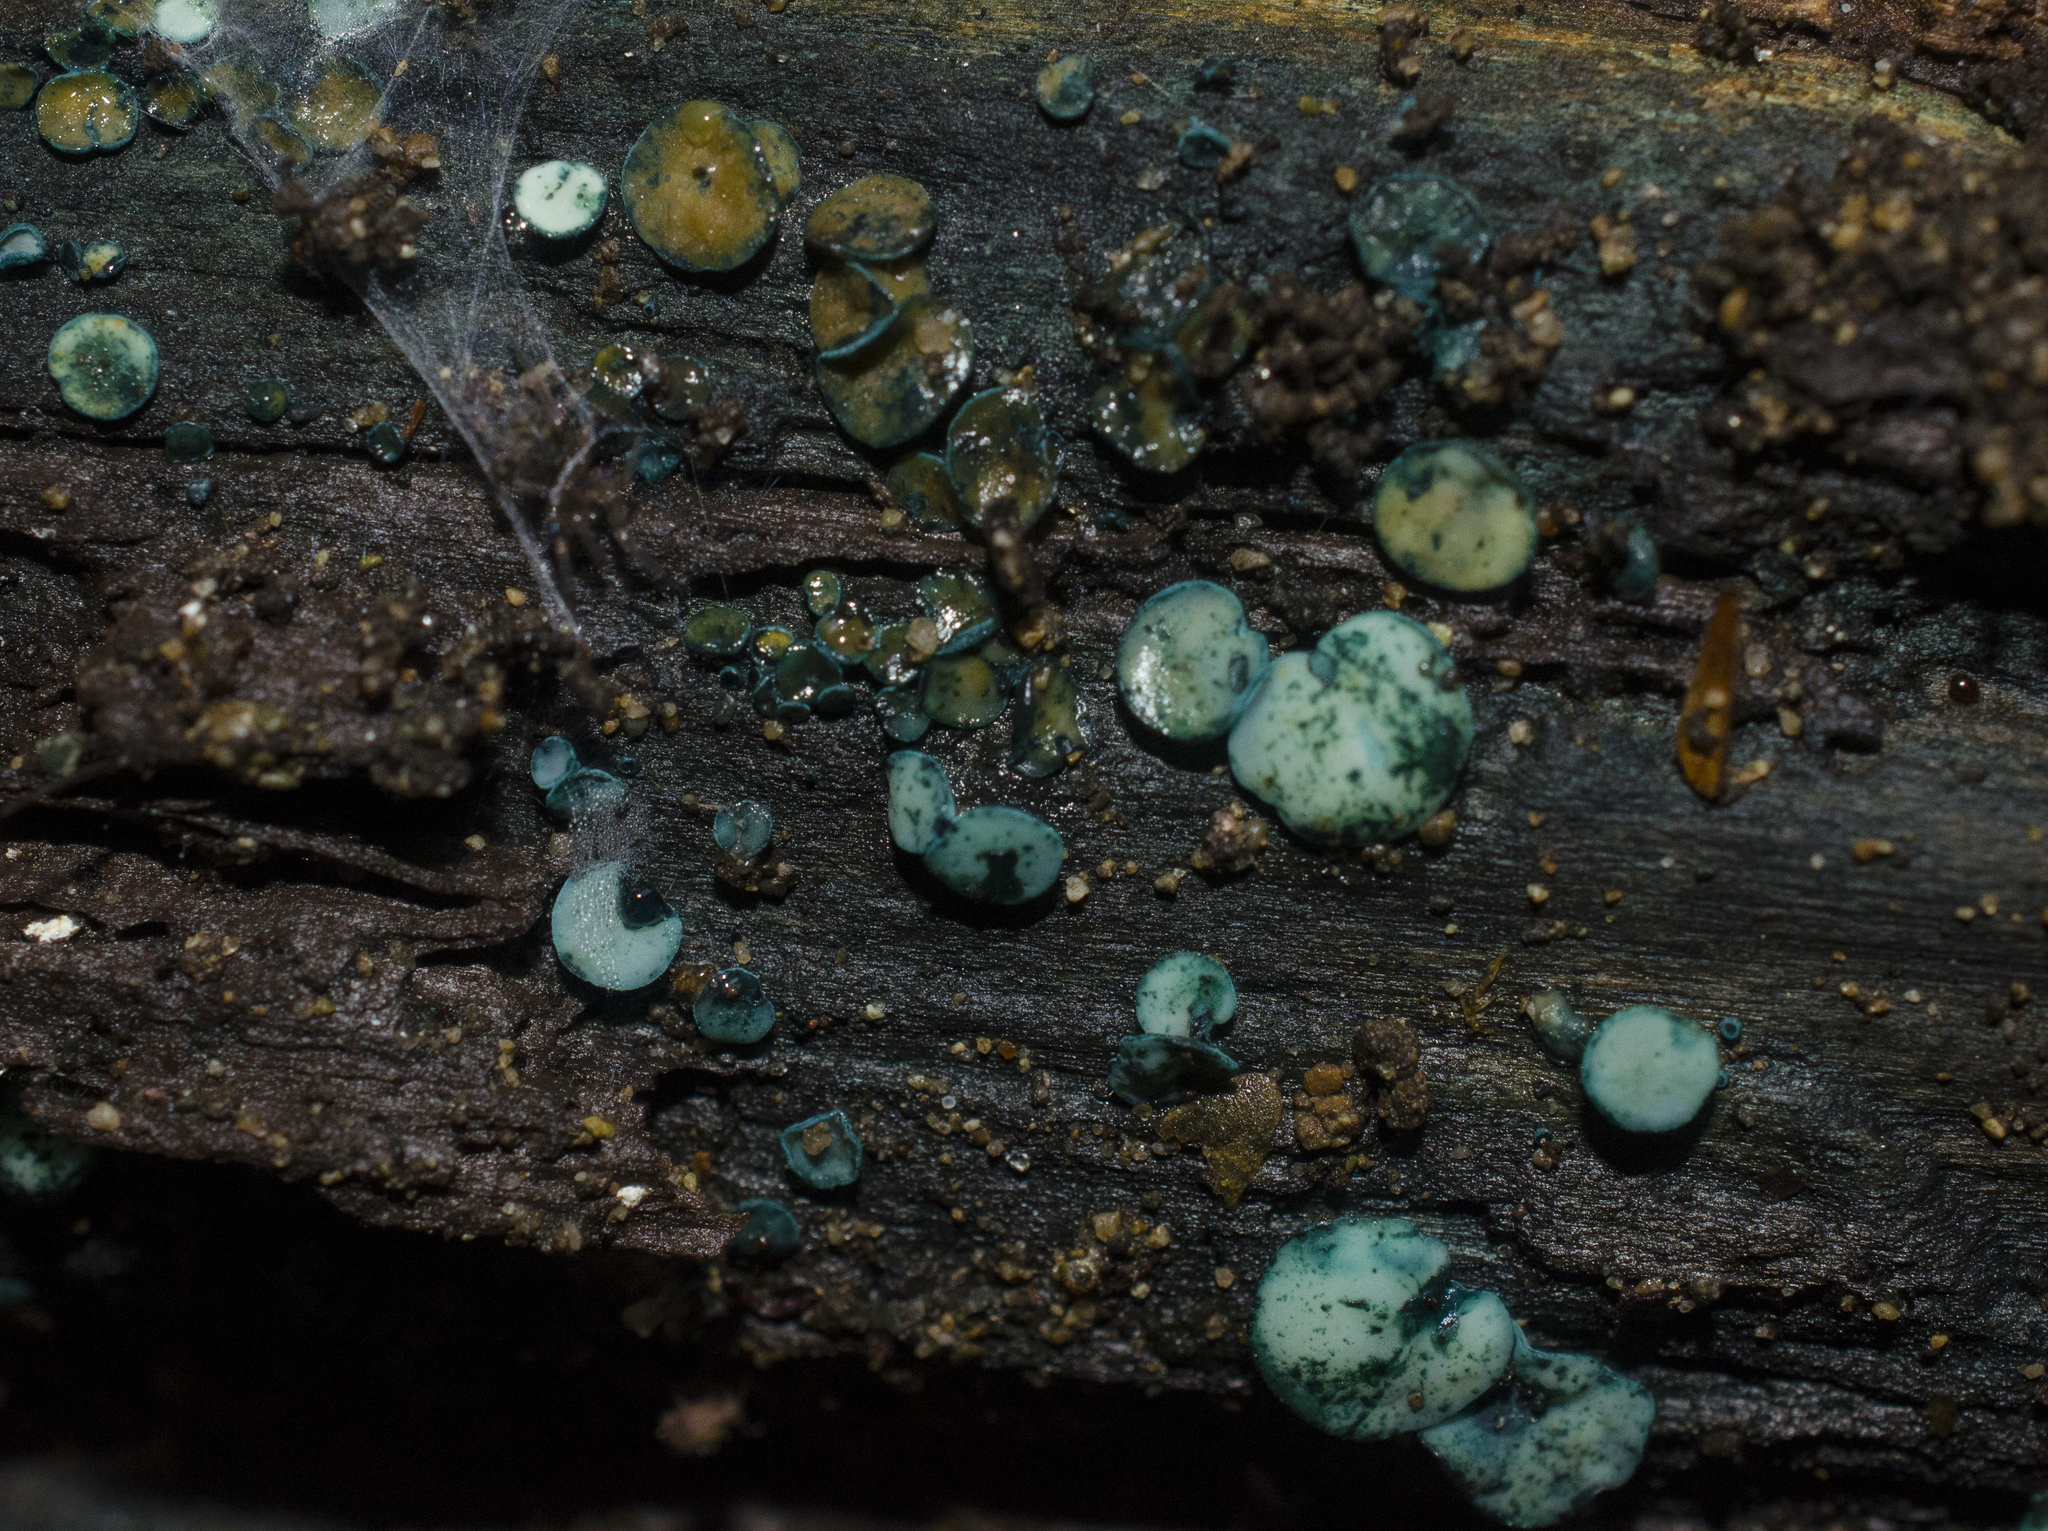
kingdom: Fungi
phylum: Ascomycota
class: Leotiomycetes
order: Helotiales
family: Chlorociboriaceae
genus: Chlorociboria
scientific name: Chlorociboria aeruginosa
